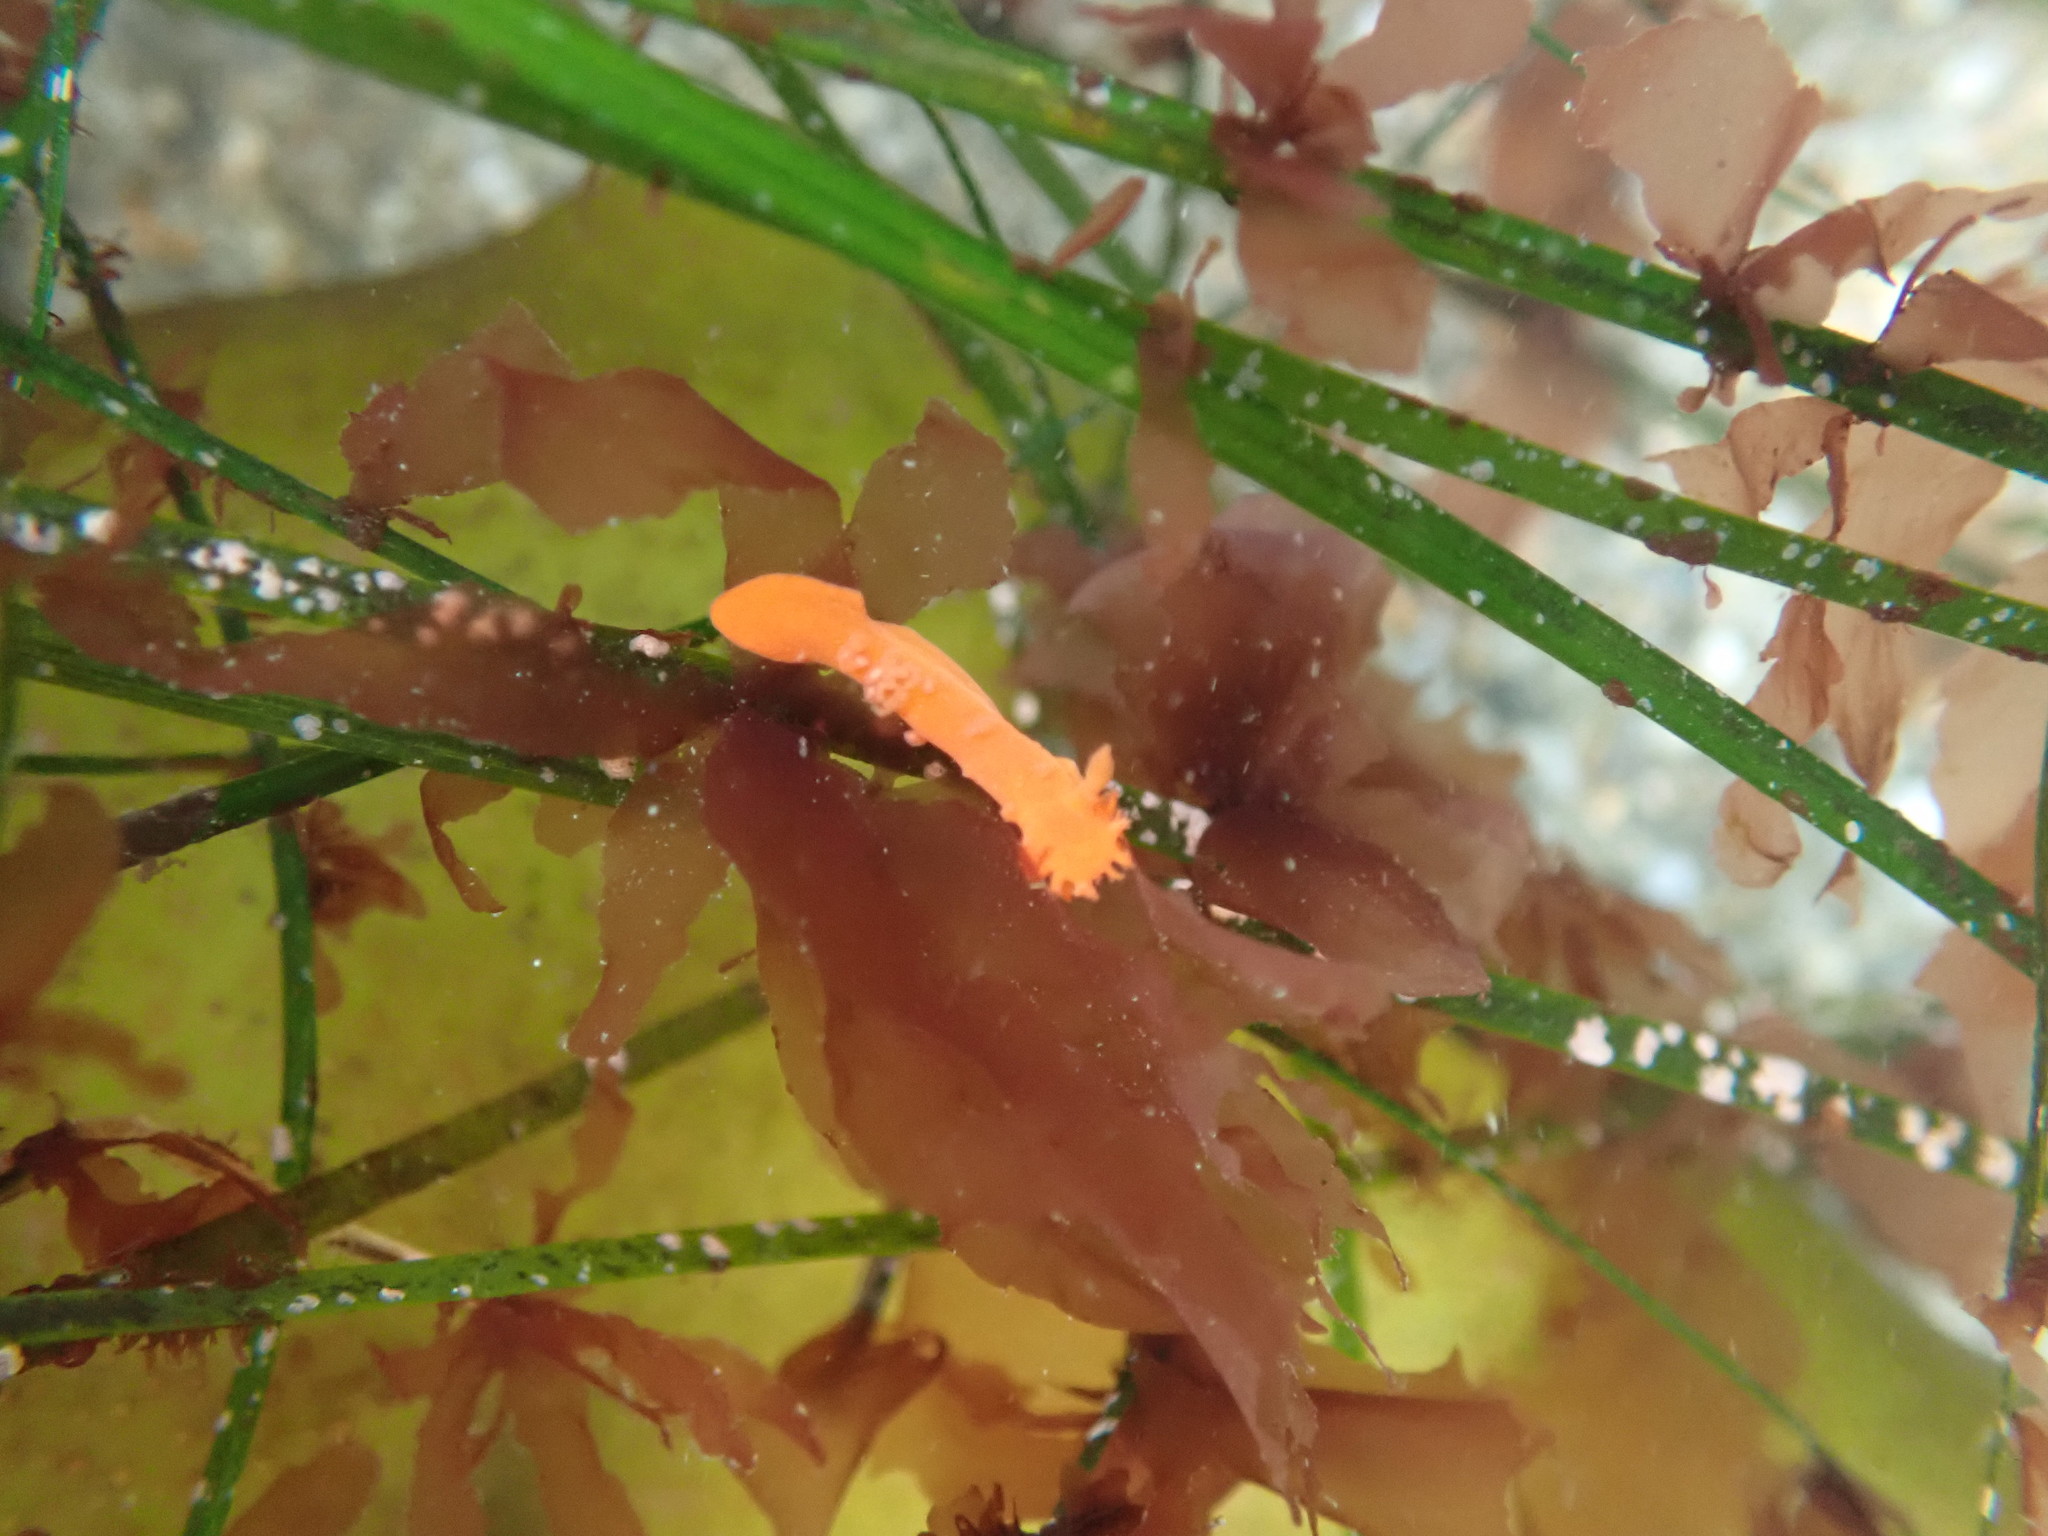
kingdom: Animalia
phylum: Mollusca
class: Gastropoda
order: Nudibranchia
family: Polyceridae
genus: Triopha
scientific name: Triopha maculata
